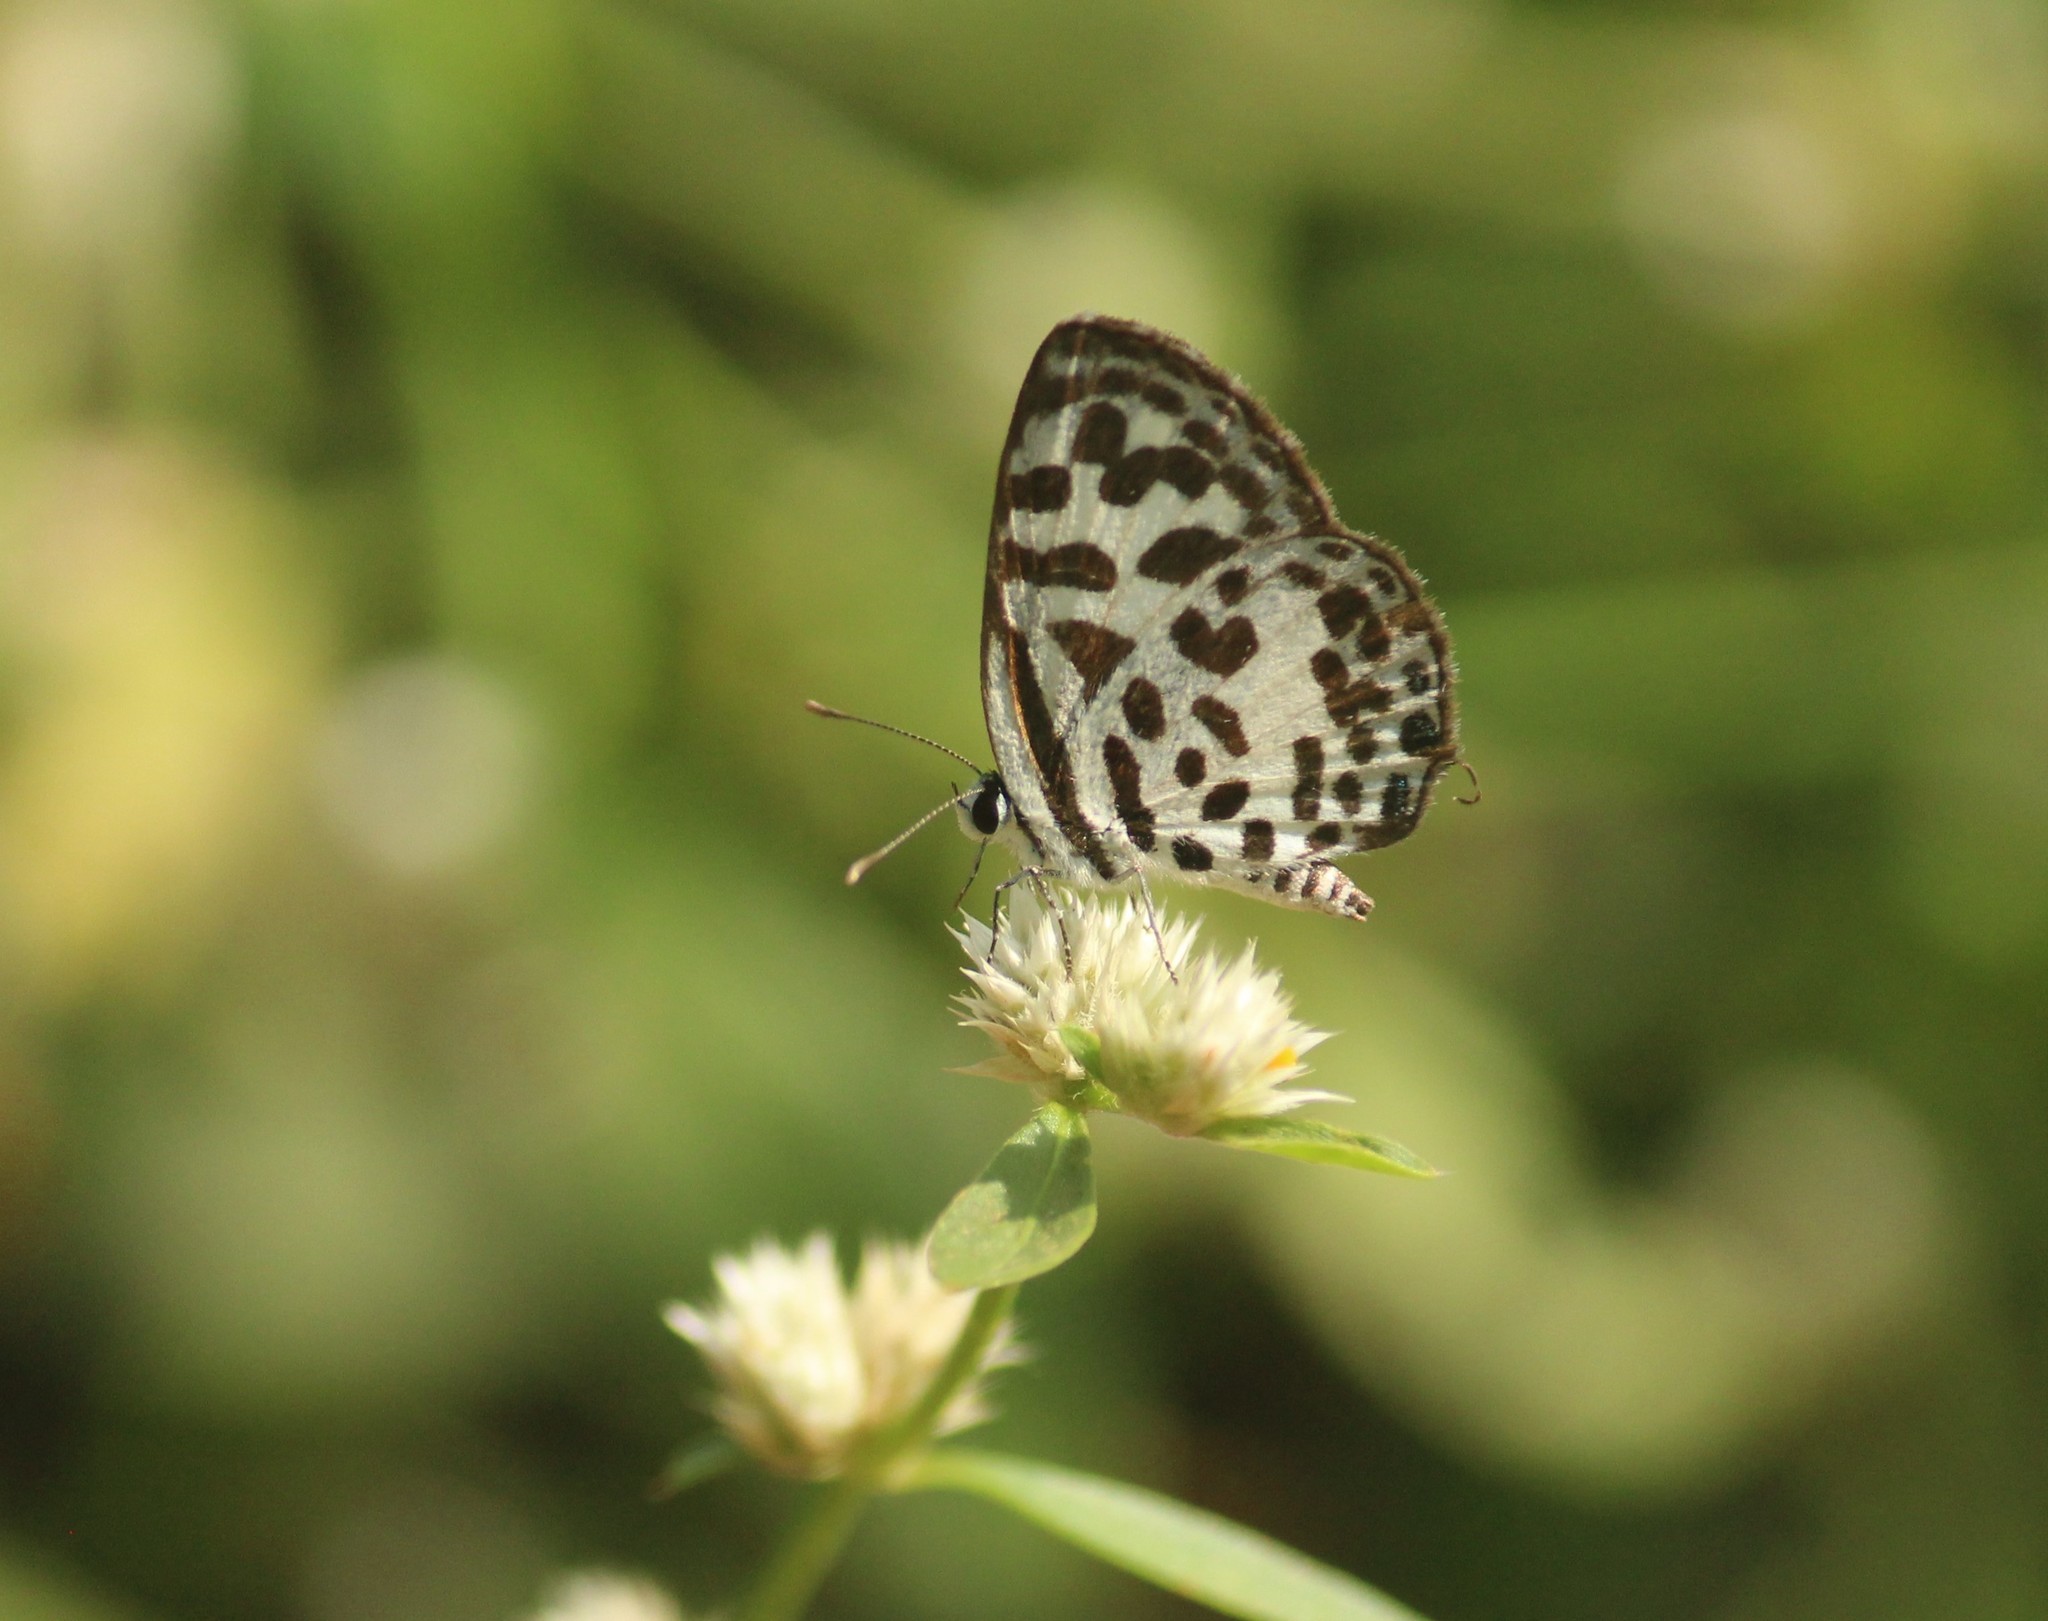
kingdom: Animalia
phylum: Arthropoda
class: Insecta
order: Lepidoptera
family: Lycaenidae
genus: Castalius
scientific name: Castalius rosimon
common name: Common pierrot
